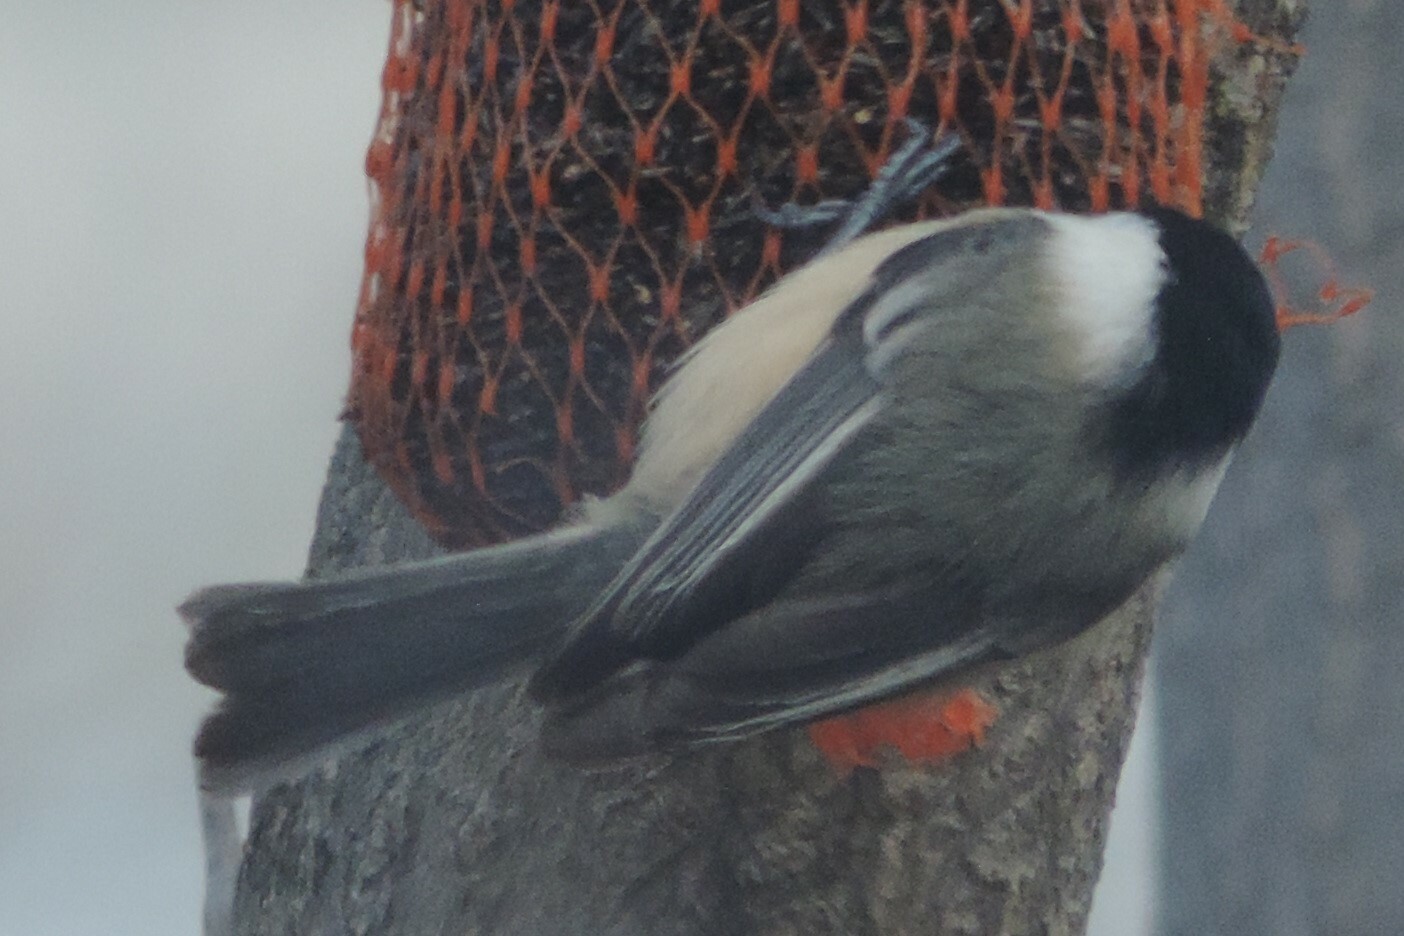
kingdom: Animalia
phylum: Chordata
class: Aves
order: Passeriformes
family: Paridae
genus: Poecile
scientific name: Poecile atricapillus
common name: Black-capped chickadee
